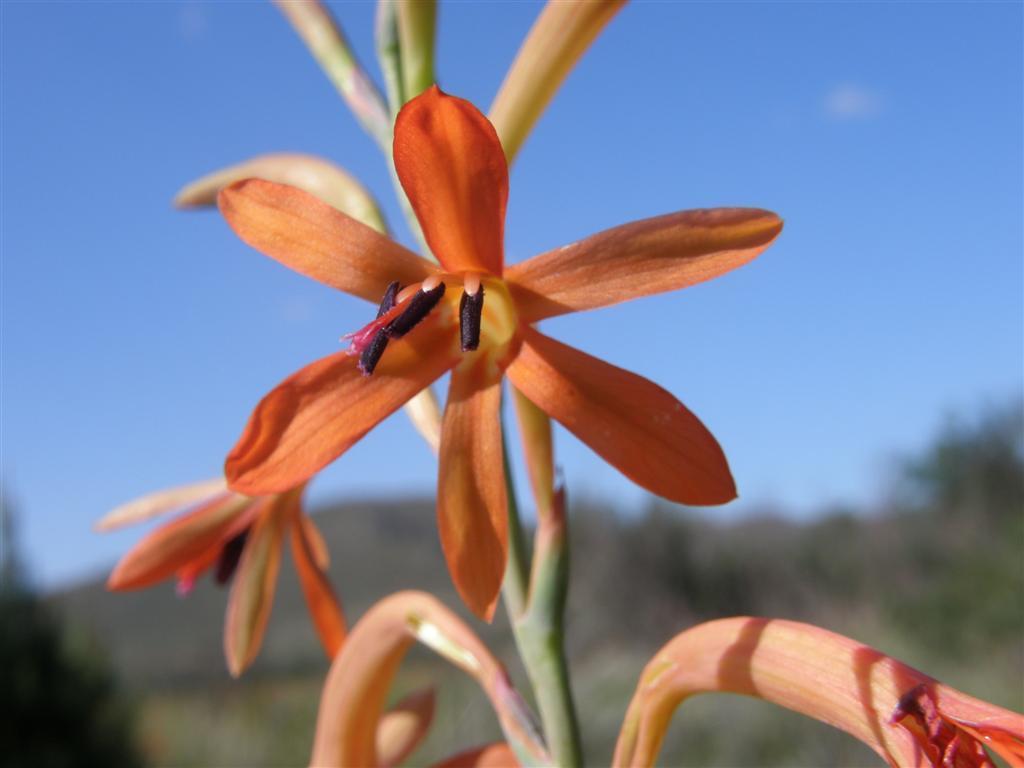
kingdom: Plantae
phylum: Tracheophyta
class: Liliopsida
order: Asparagales
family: Iridaceae
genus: Watsonia
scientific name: Watsonia meriana
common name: Bulbil bugle-lily
